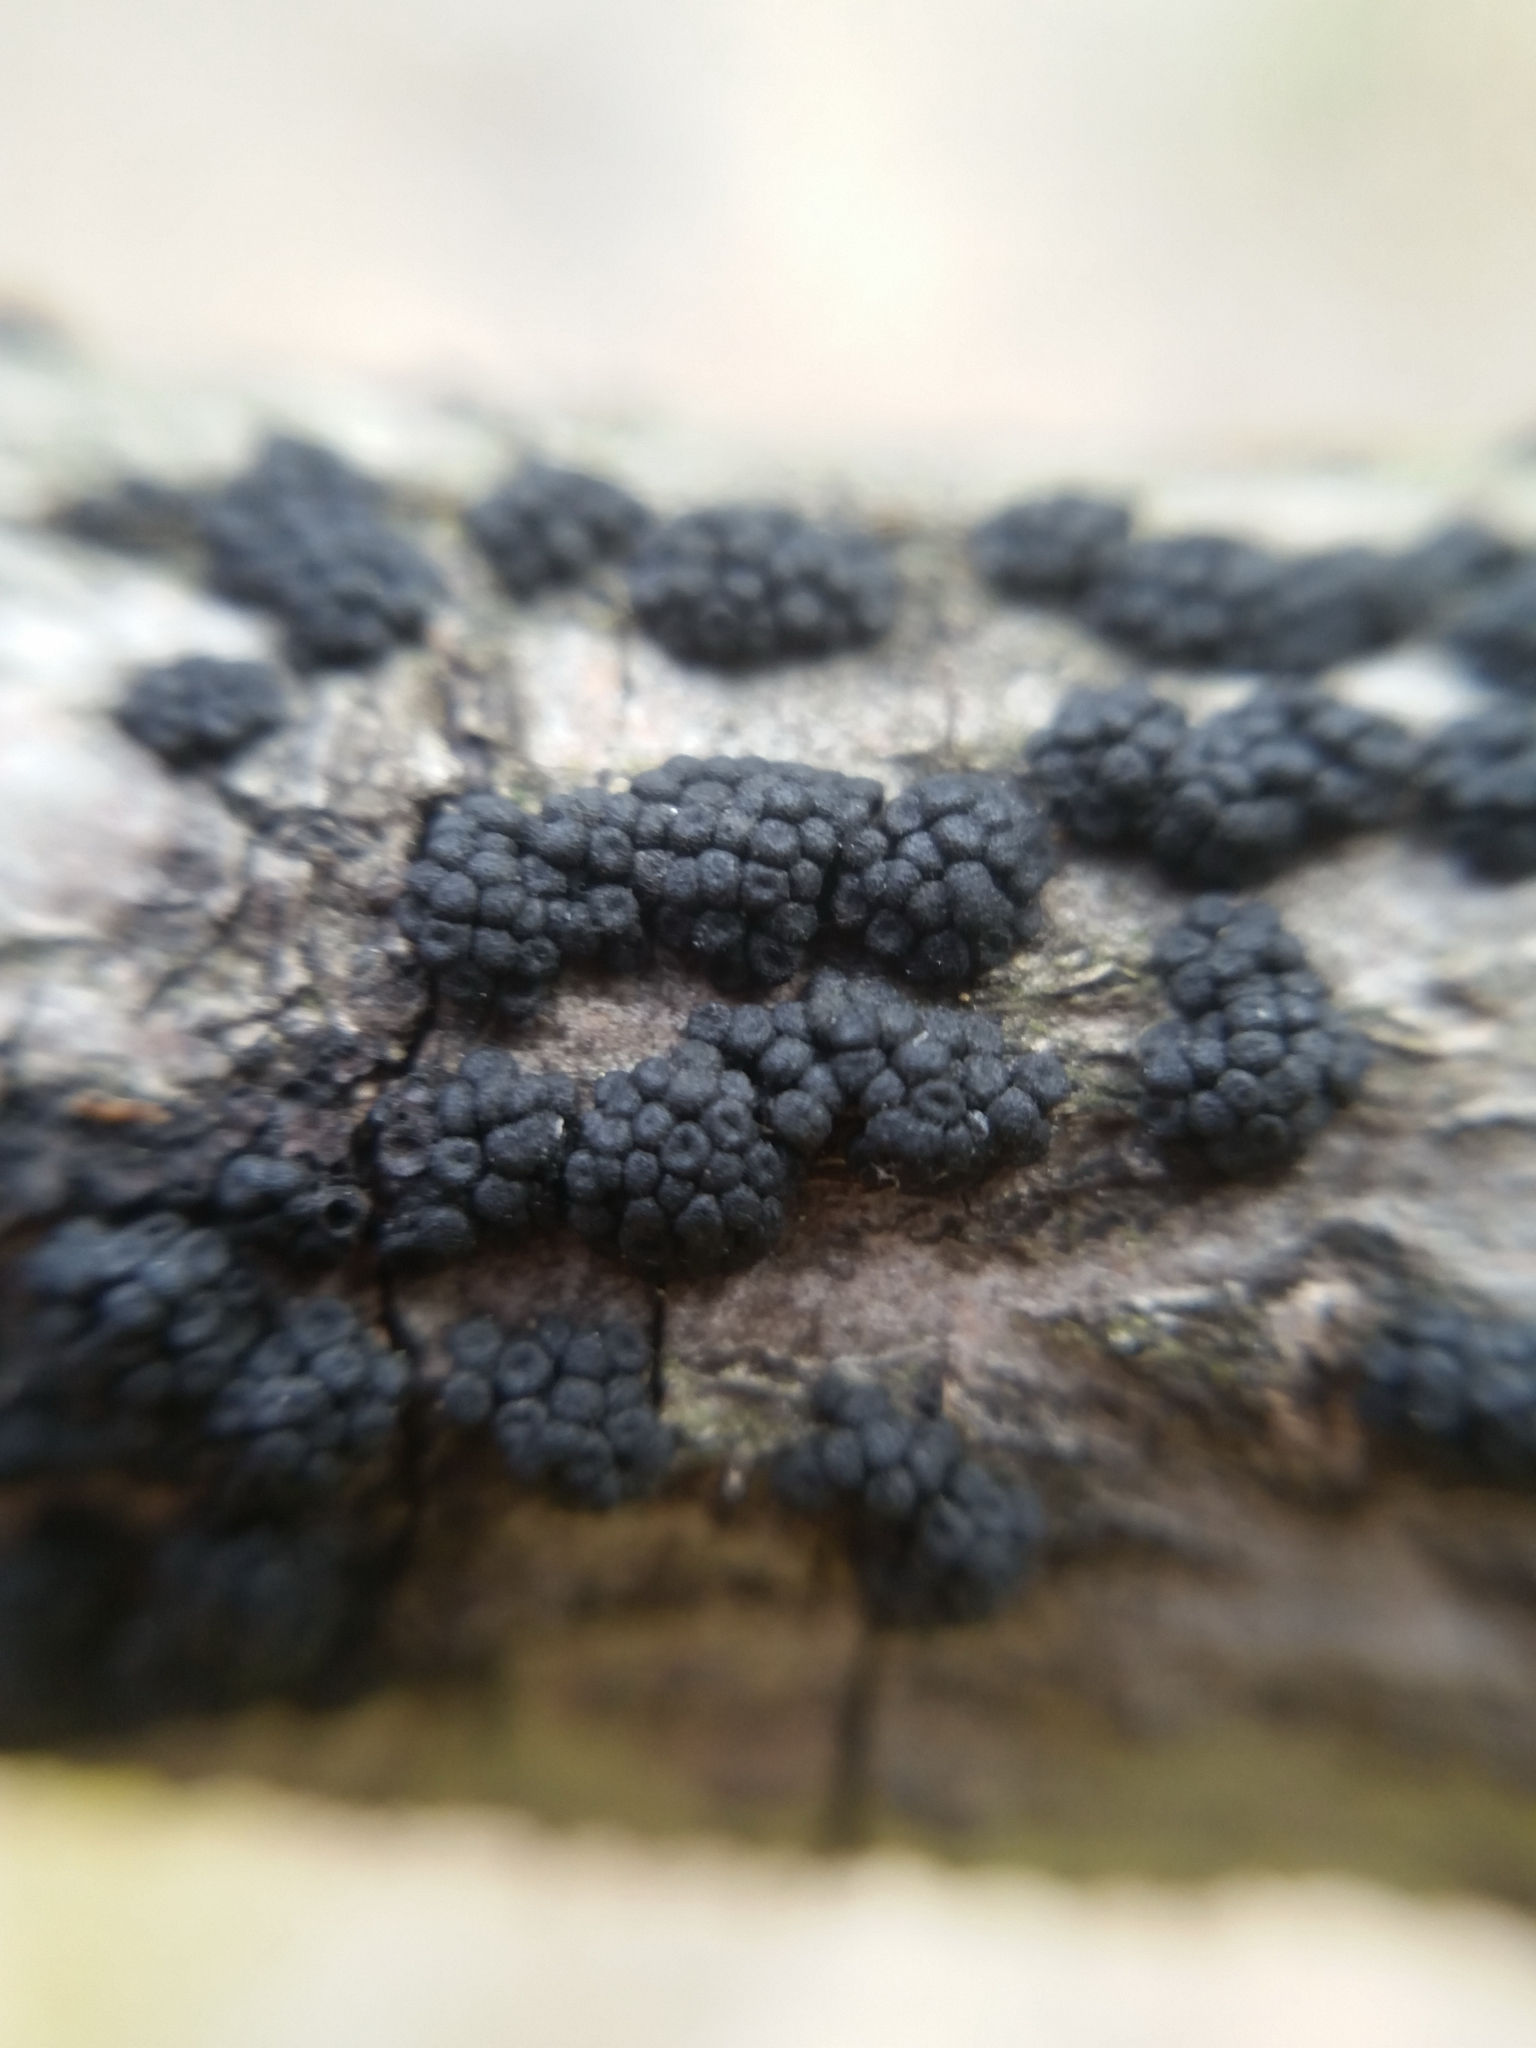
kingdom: Fungi
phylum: Ascomycota
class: Sordariomycetes
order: Coronophorales
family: Nitschkiaceae
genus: Fracchiaea
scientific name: Fracchiaea broomeana
